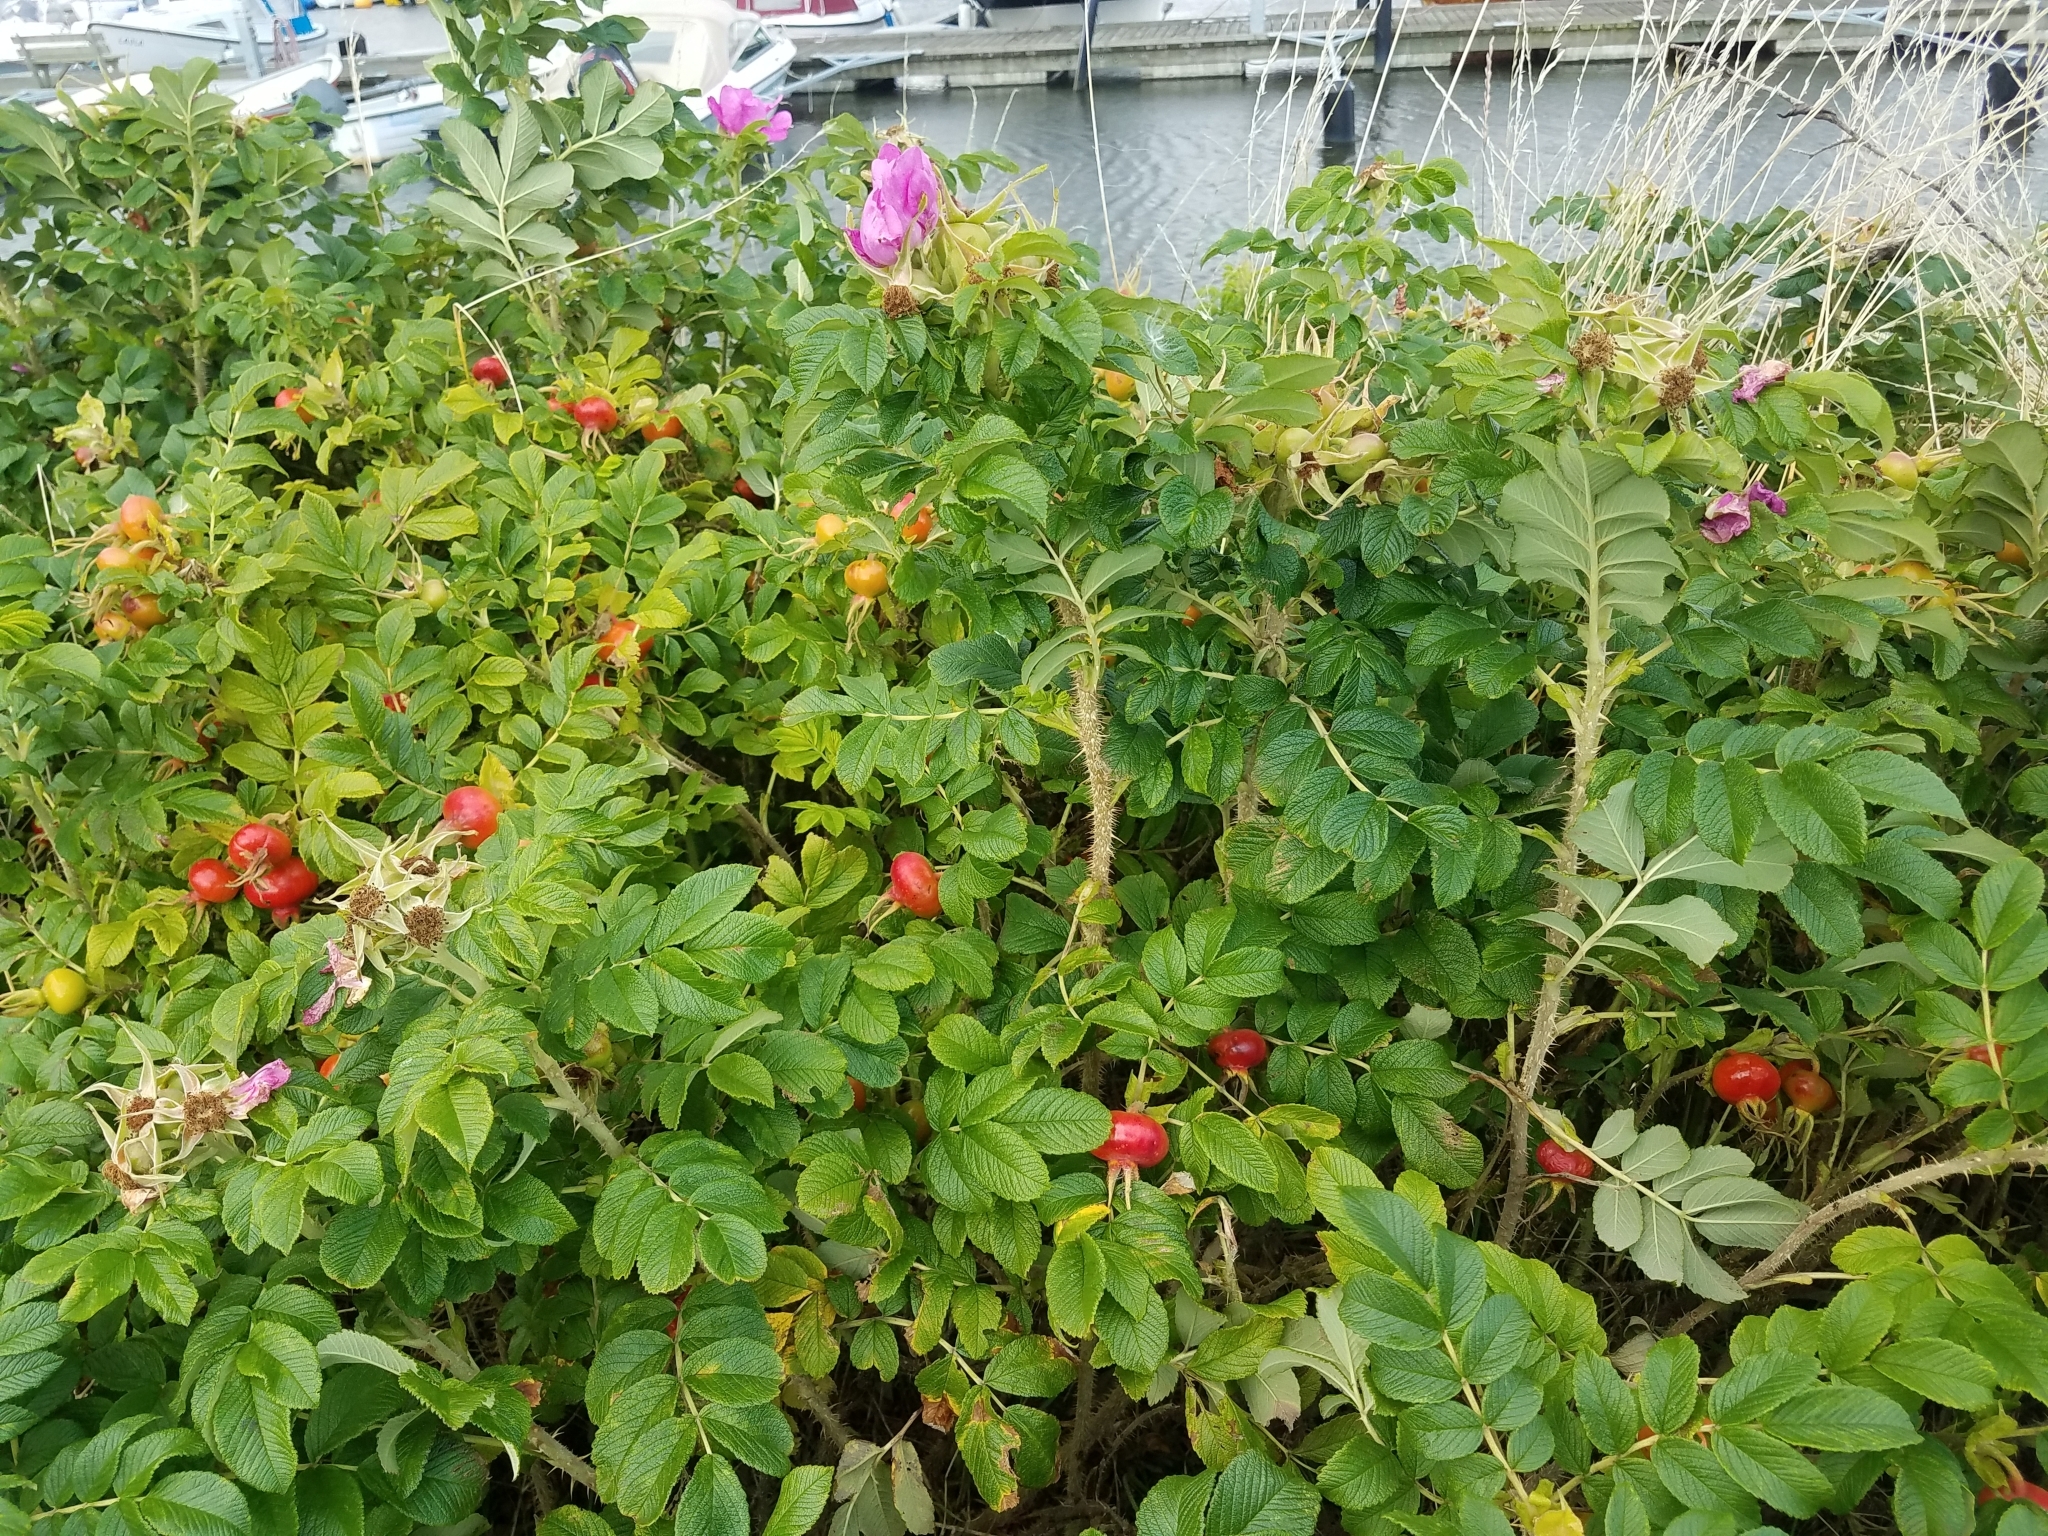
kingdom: Plantae
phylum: Tracheophyta
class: Magnoliopsida
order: Rosales
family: Rosaceae
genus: Rosa
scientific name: Rosa rugosa
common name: Japanese rose
